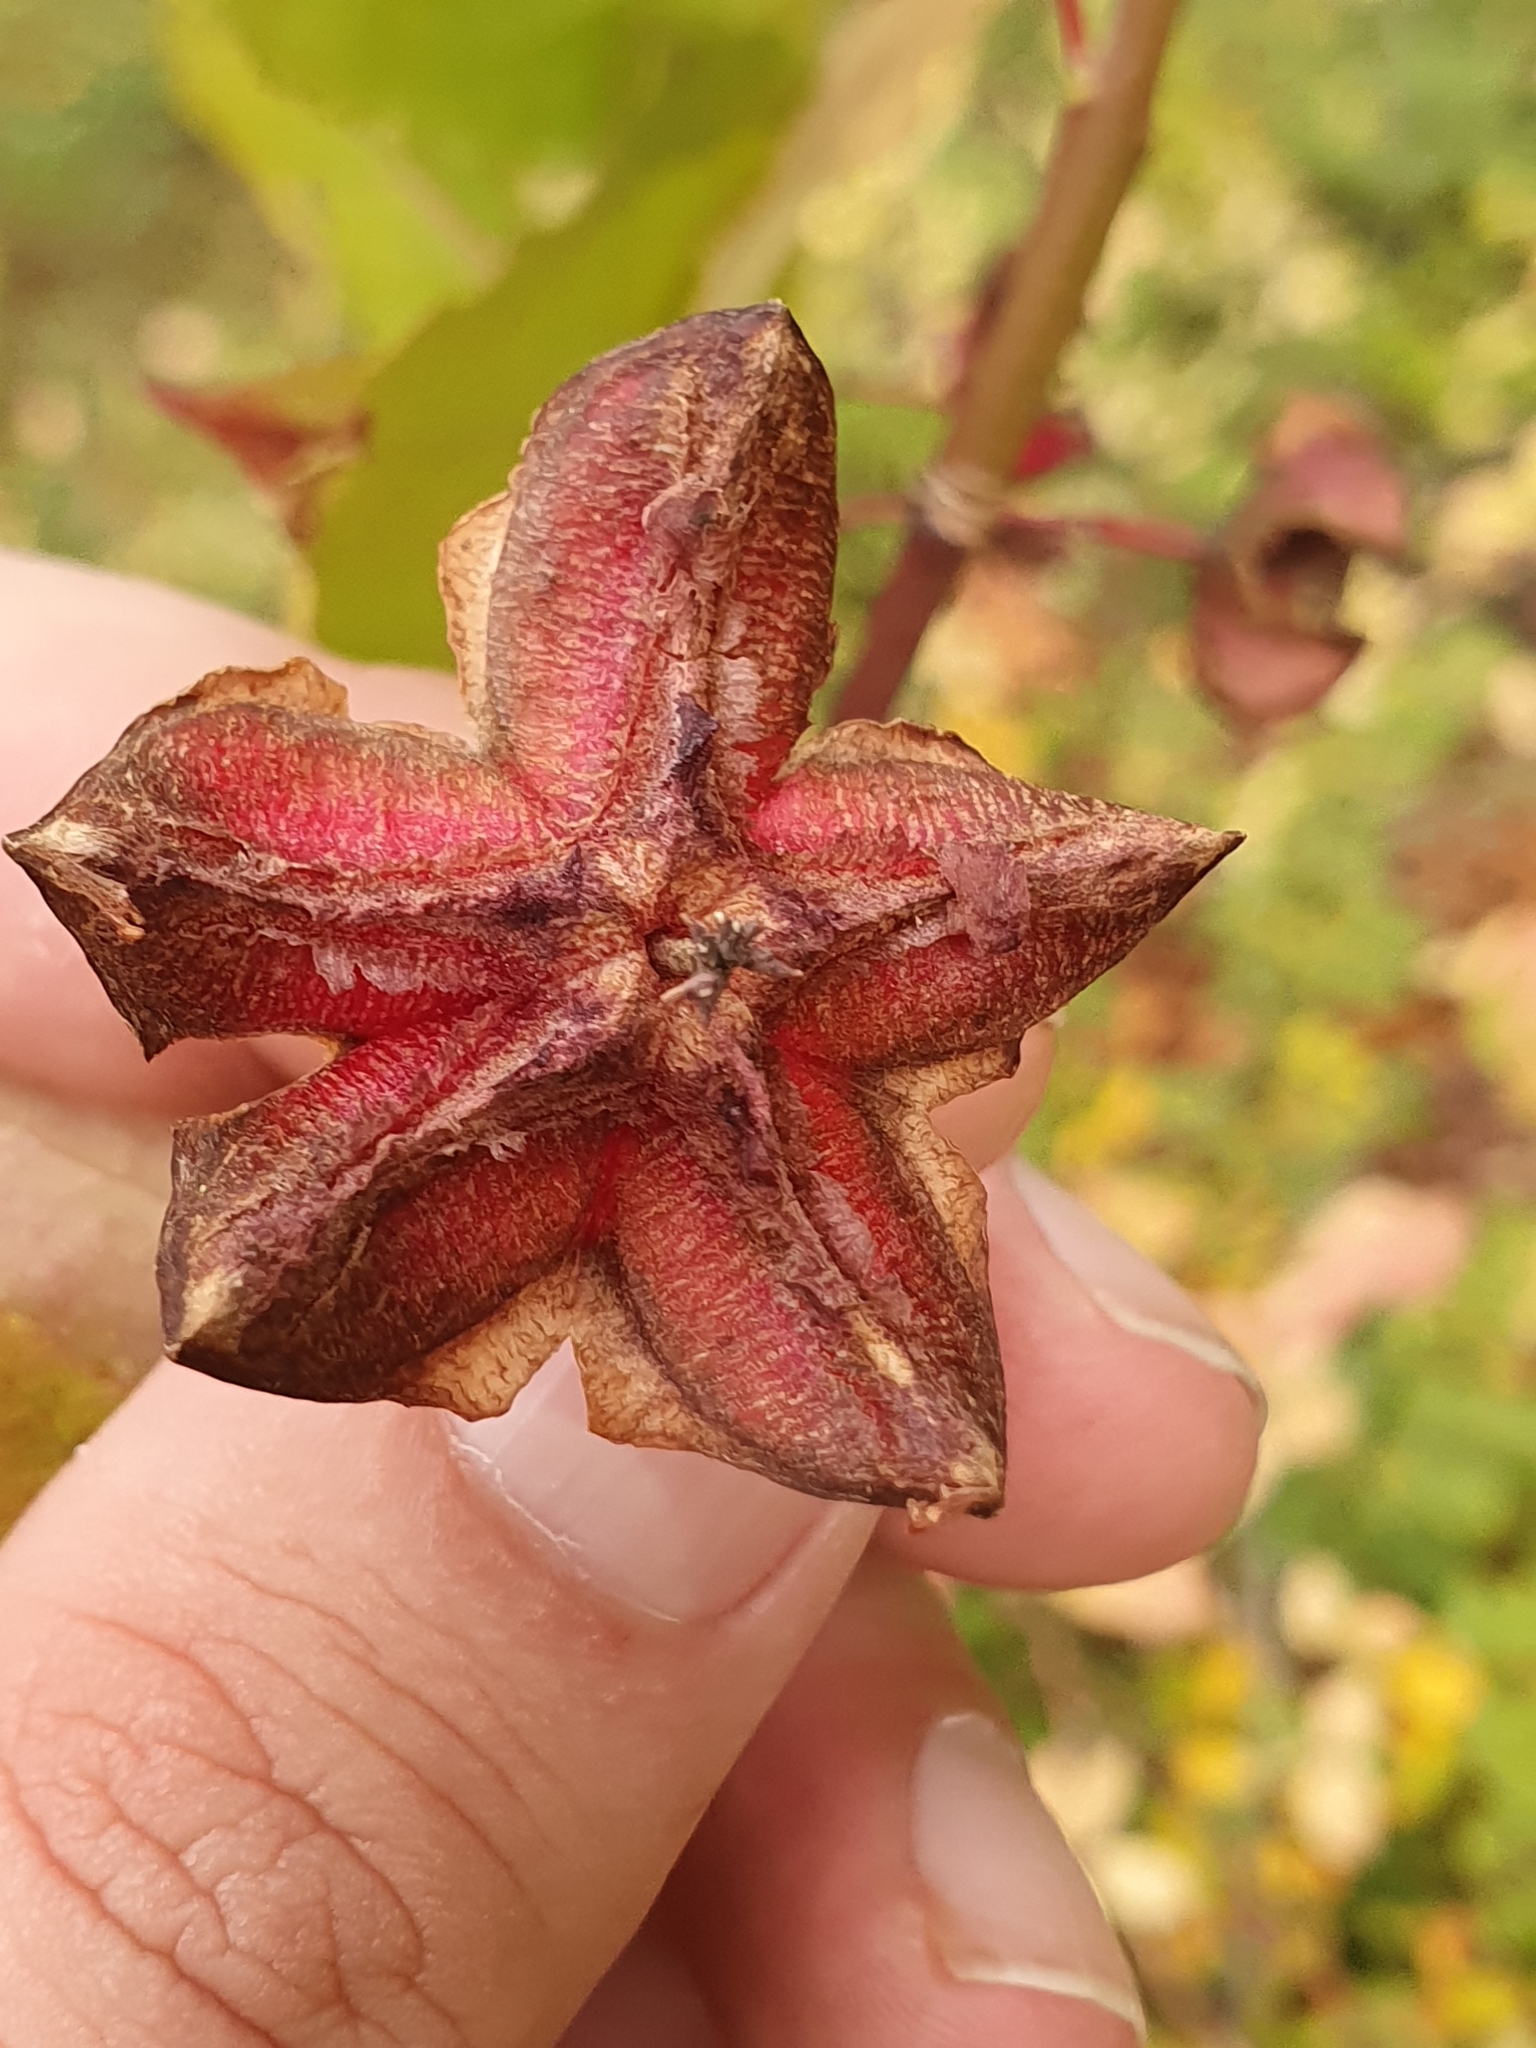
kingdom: Plantae
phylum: Tracheophyta
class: Magnoliopsida
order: Celastrales
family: Celastraceae
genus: Euonymus
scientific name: Euonymus latifolius
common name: Large-leaved spindle
